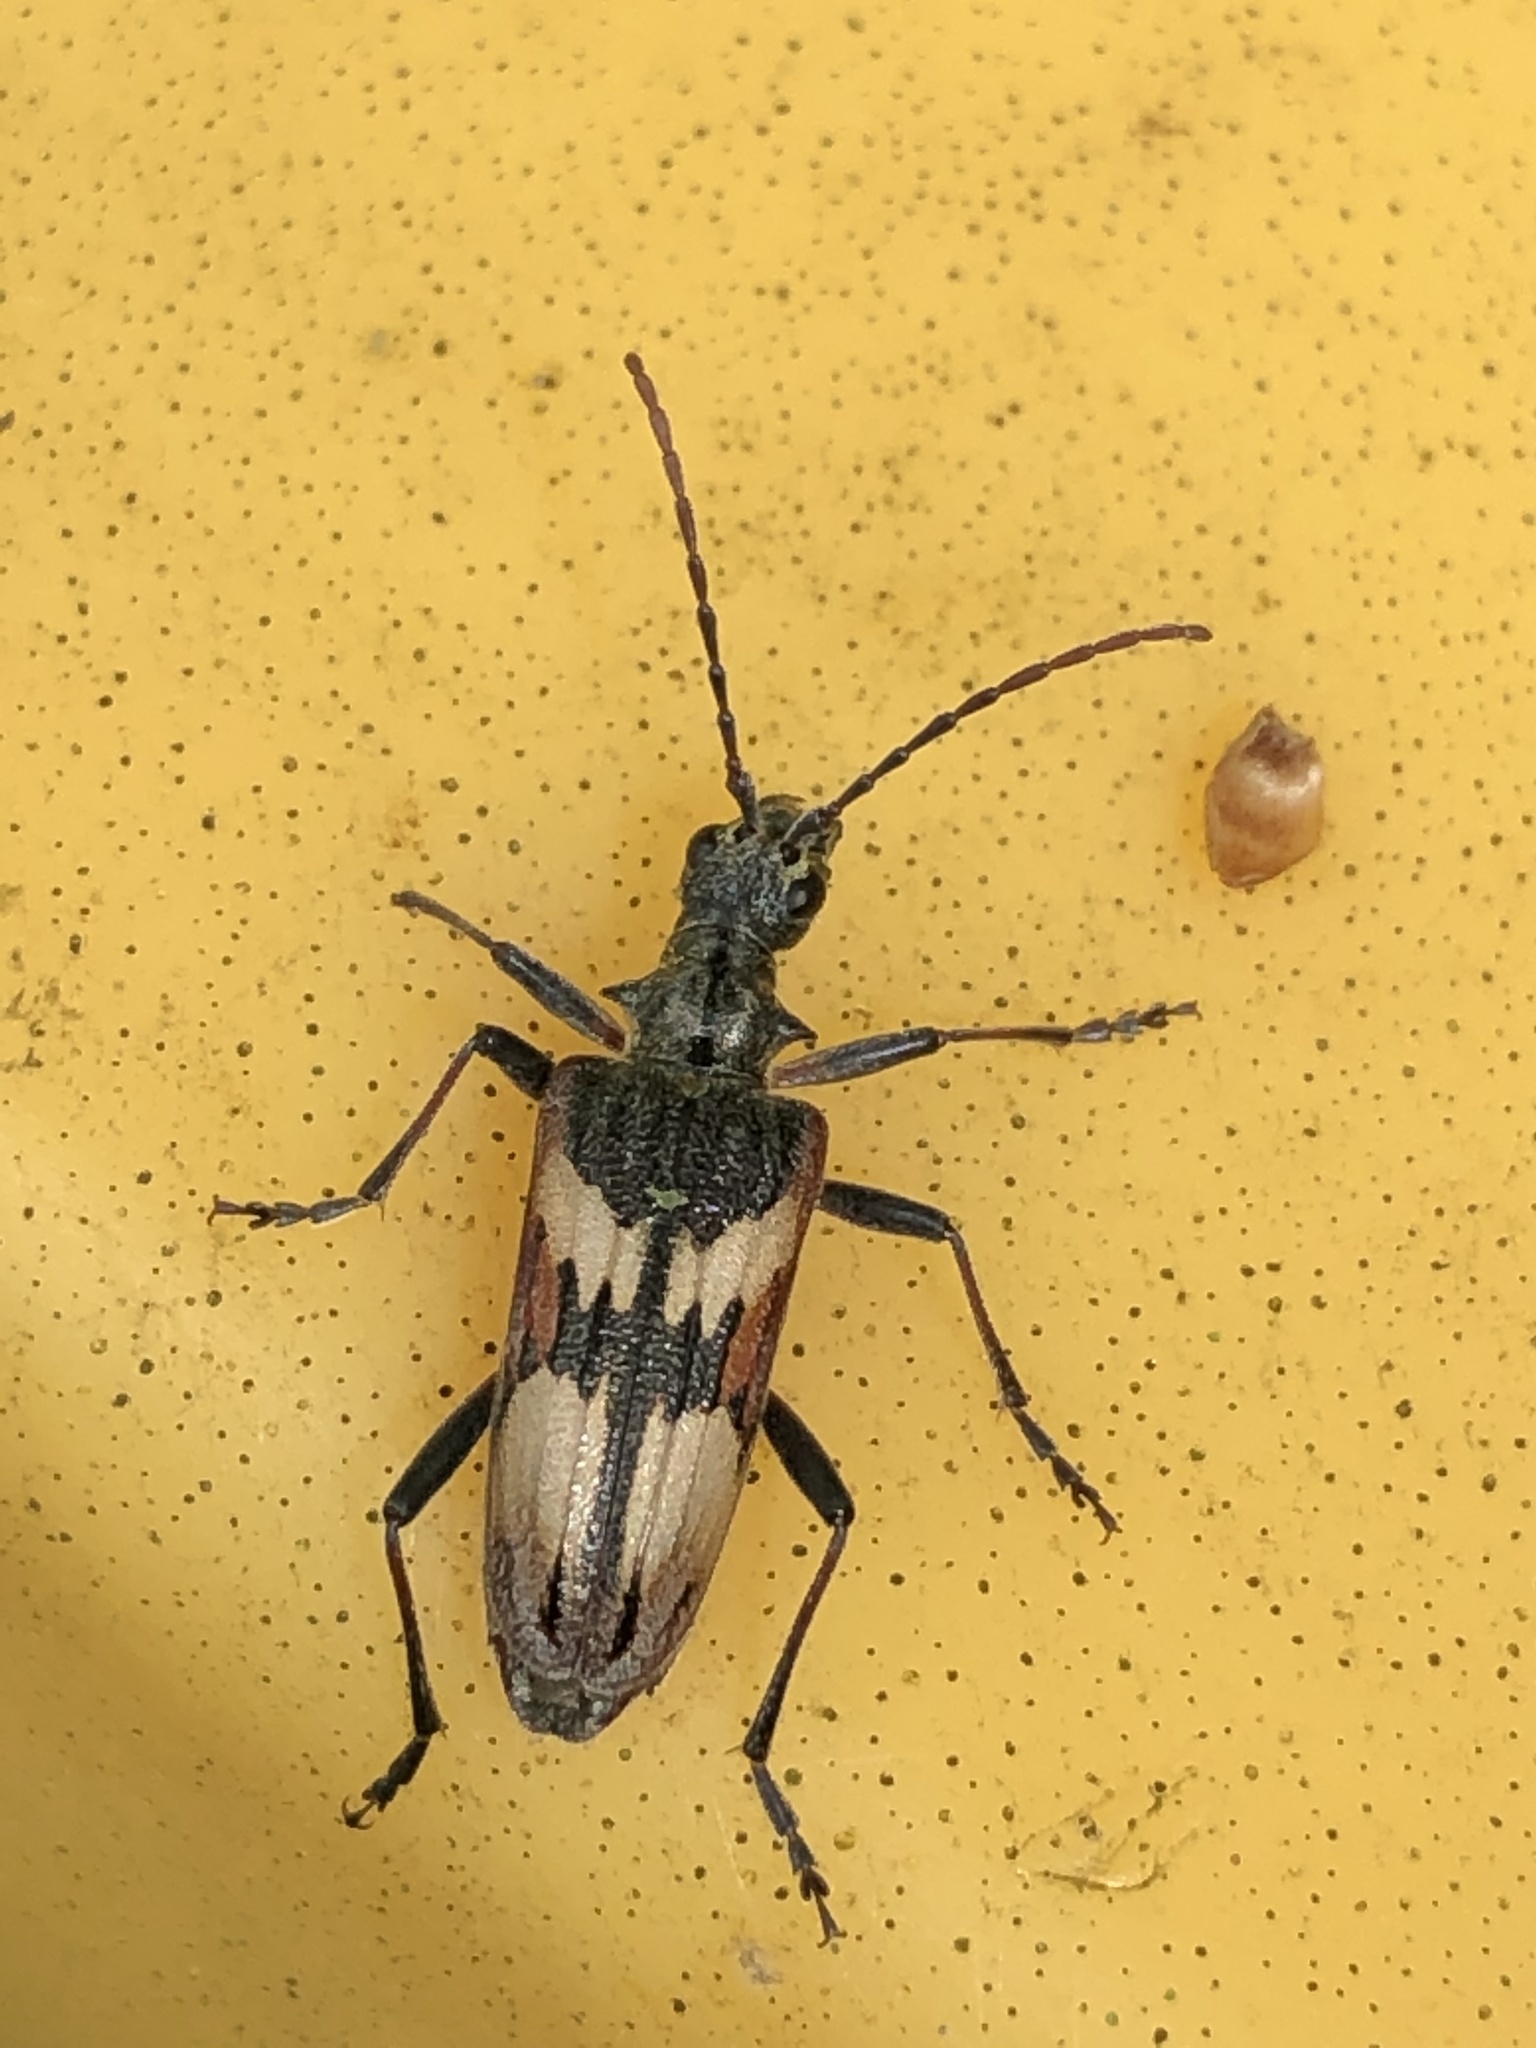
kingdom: Animalia
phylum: Arthropoda
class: Insecta
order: Coleoptera
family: Cerambycidae
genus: Rhagium
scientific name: Rhagium bifasciatum
